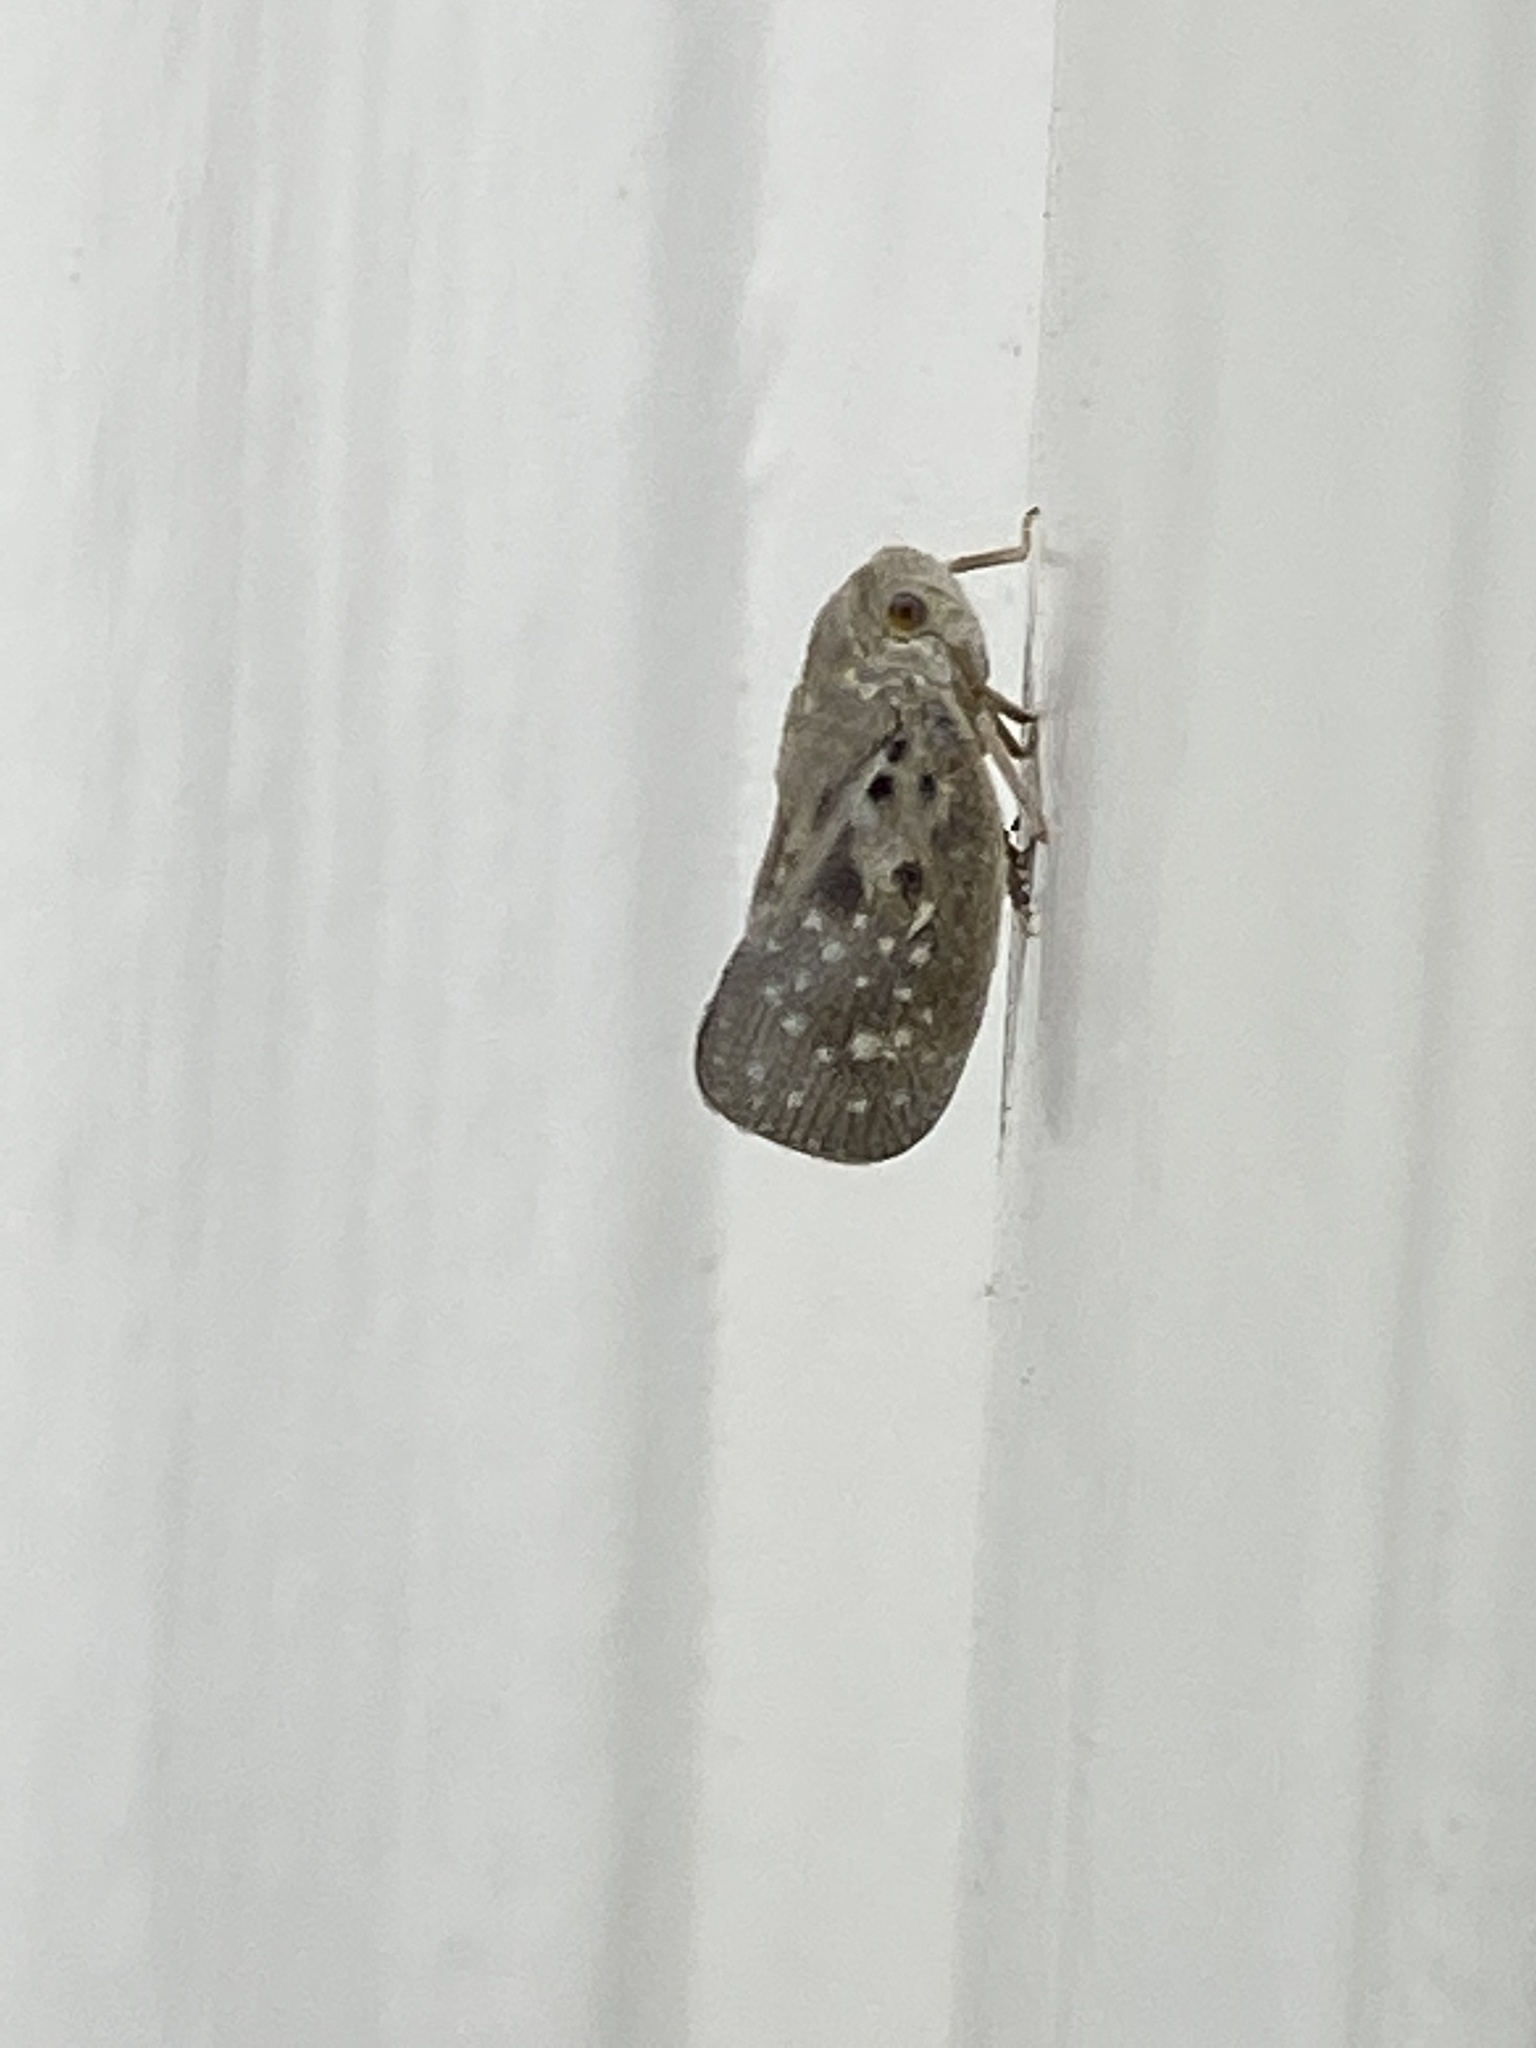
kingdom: Animalia
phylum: Arthropoda
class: Insecta
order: Hemiptera
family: Flatidae
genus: Metcalfa
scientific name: Metcalfa pruinosa
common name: Citrus flatid planthopper
